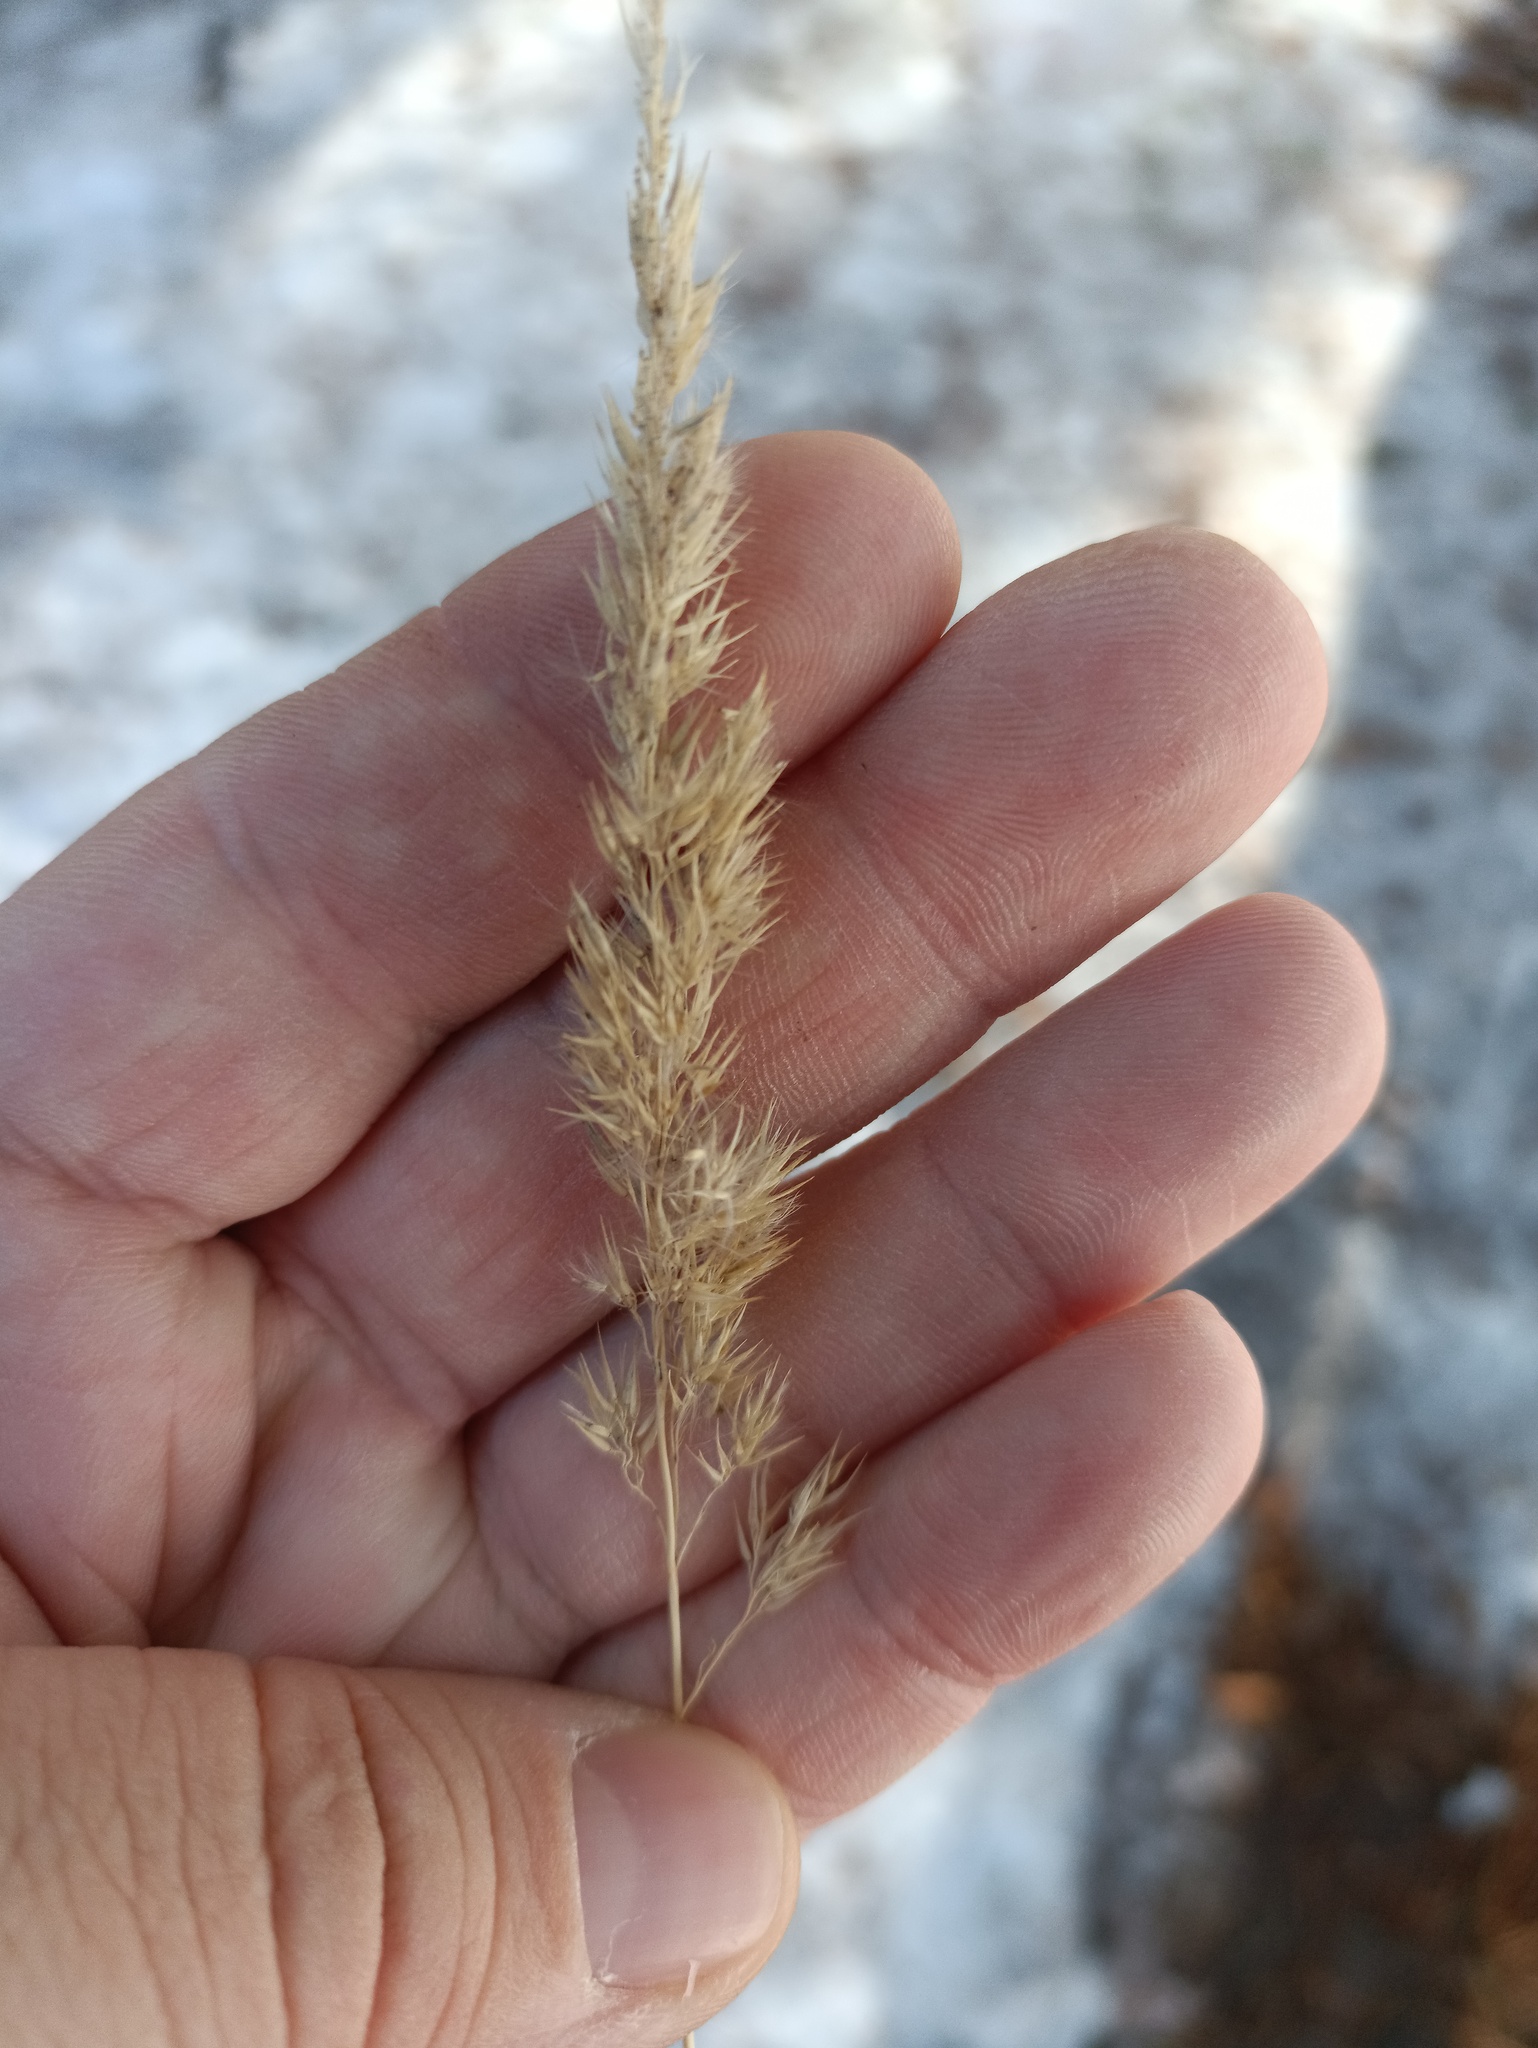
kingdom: Plantae
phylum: Tracheophyta
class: Liliopsida
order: Poales
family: Poaceae
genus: Calamagrostis
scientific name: Calamagrostis epigejos
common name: Wood small-reed
